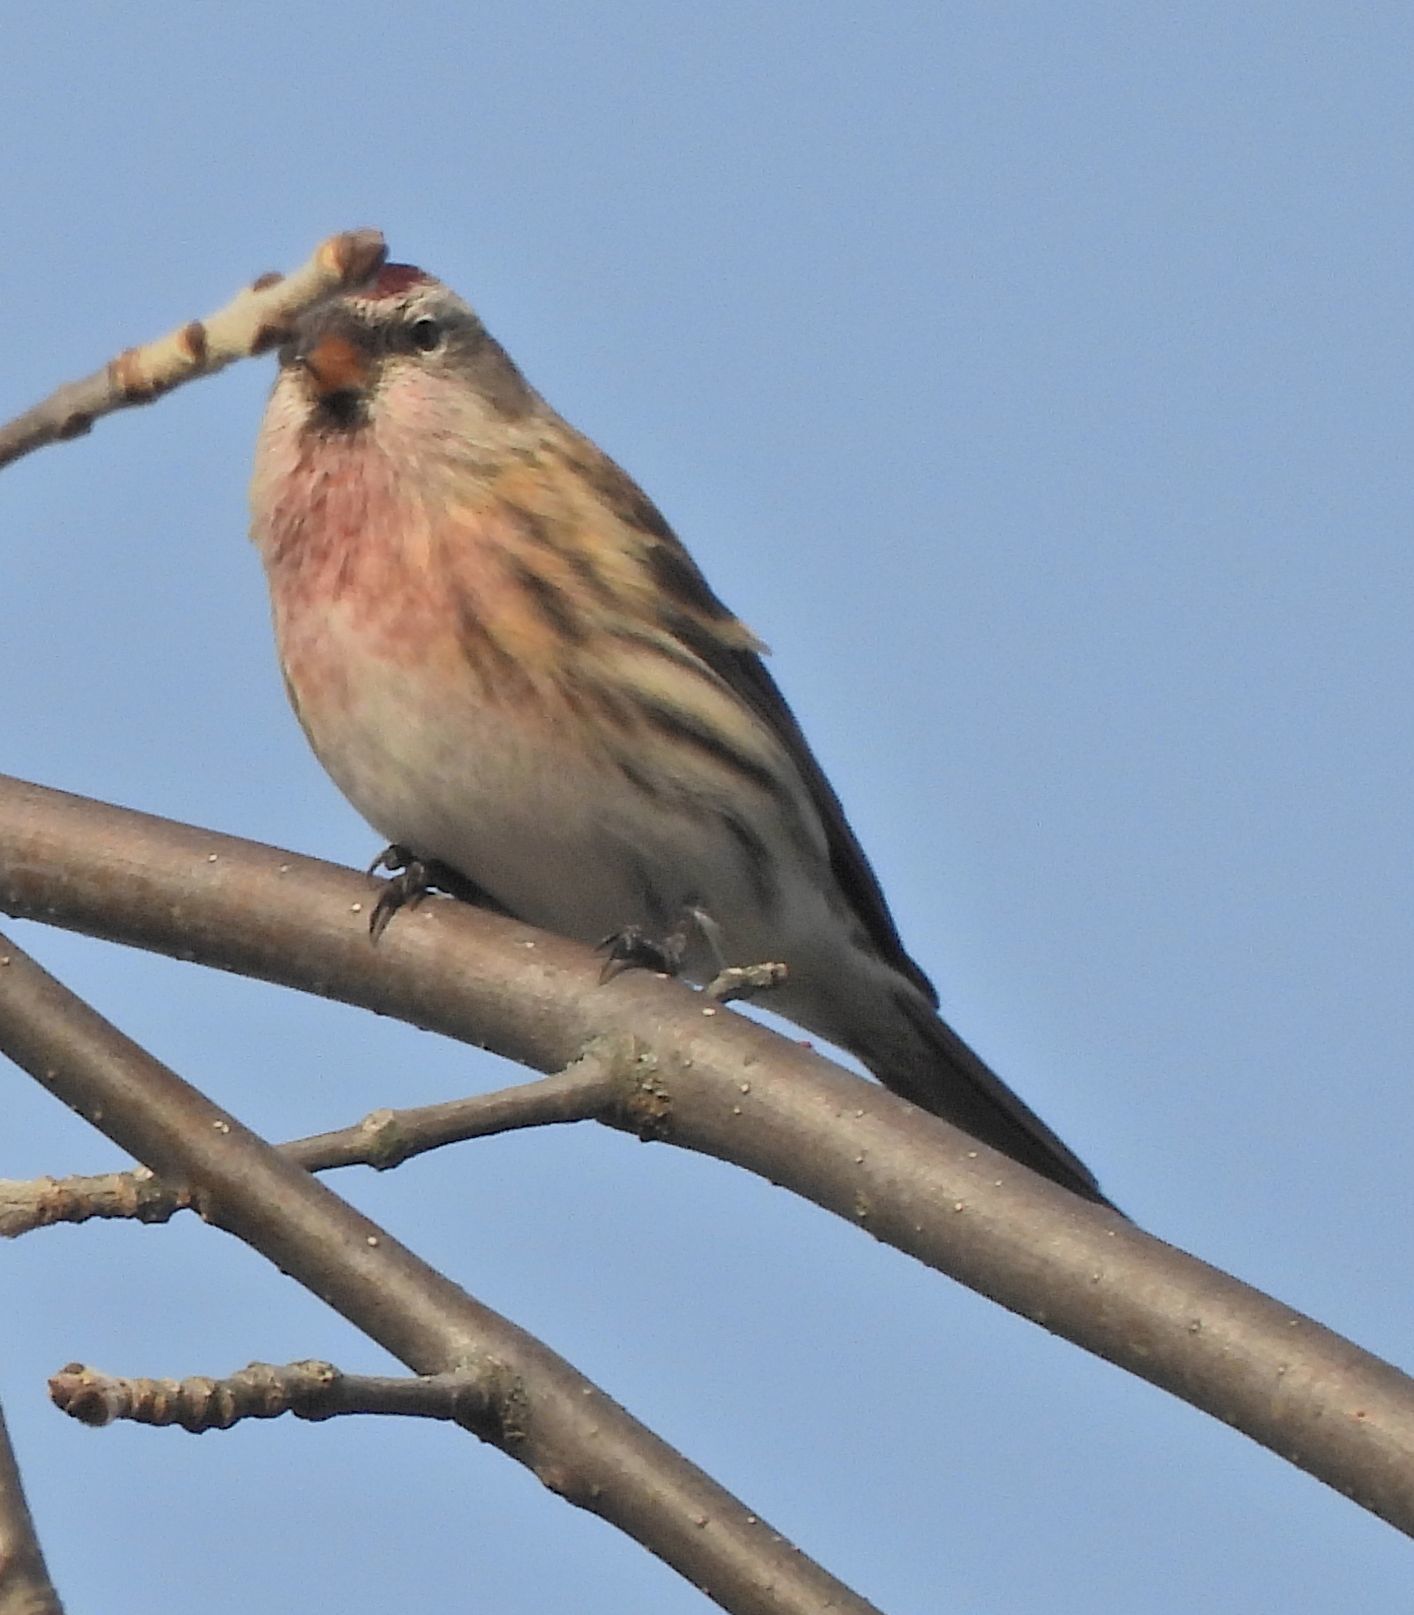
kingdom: Animalia
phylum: Chordata
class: Aves
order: Passeriformes
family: Fringillidae
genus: Acanthis
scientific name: Acanthis flammea
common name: Common redpoll
